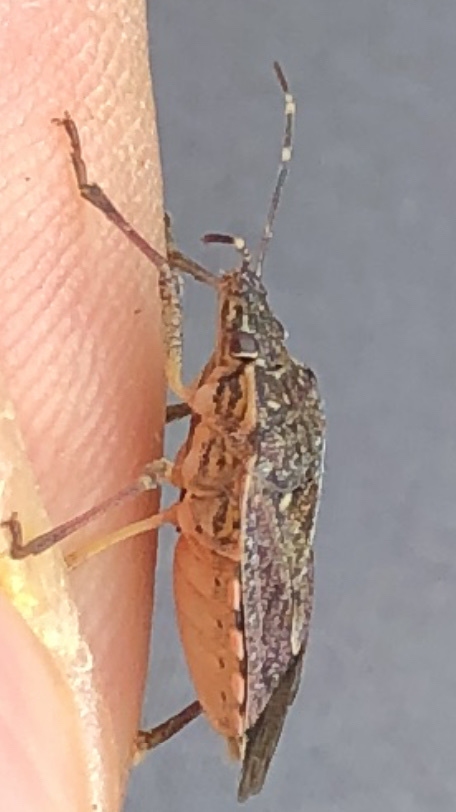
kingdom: Animalia
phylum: Arthropoda
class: Insecta
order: Hemiptera
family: Pentatomidae
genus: Halyomorpha
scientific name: Halyomorpha halys
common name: Brown marmorated stink bug
